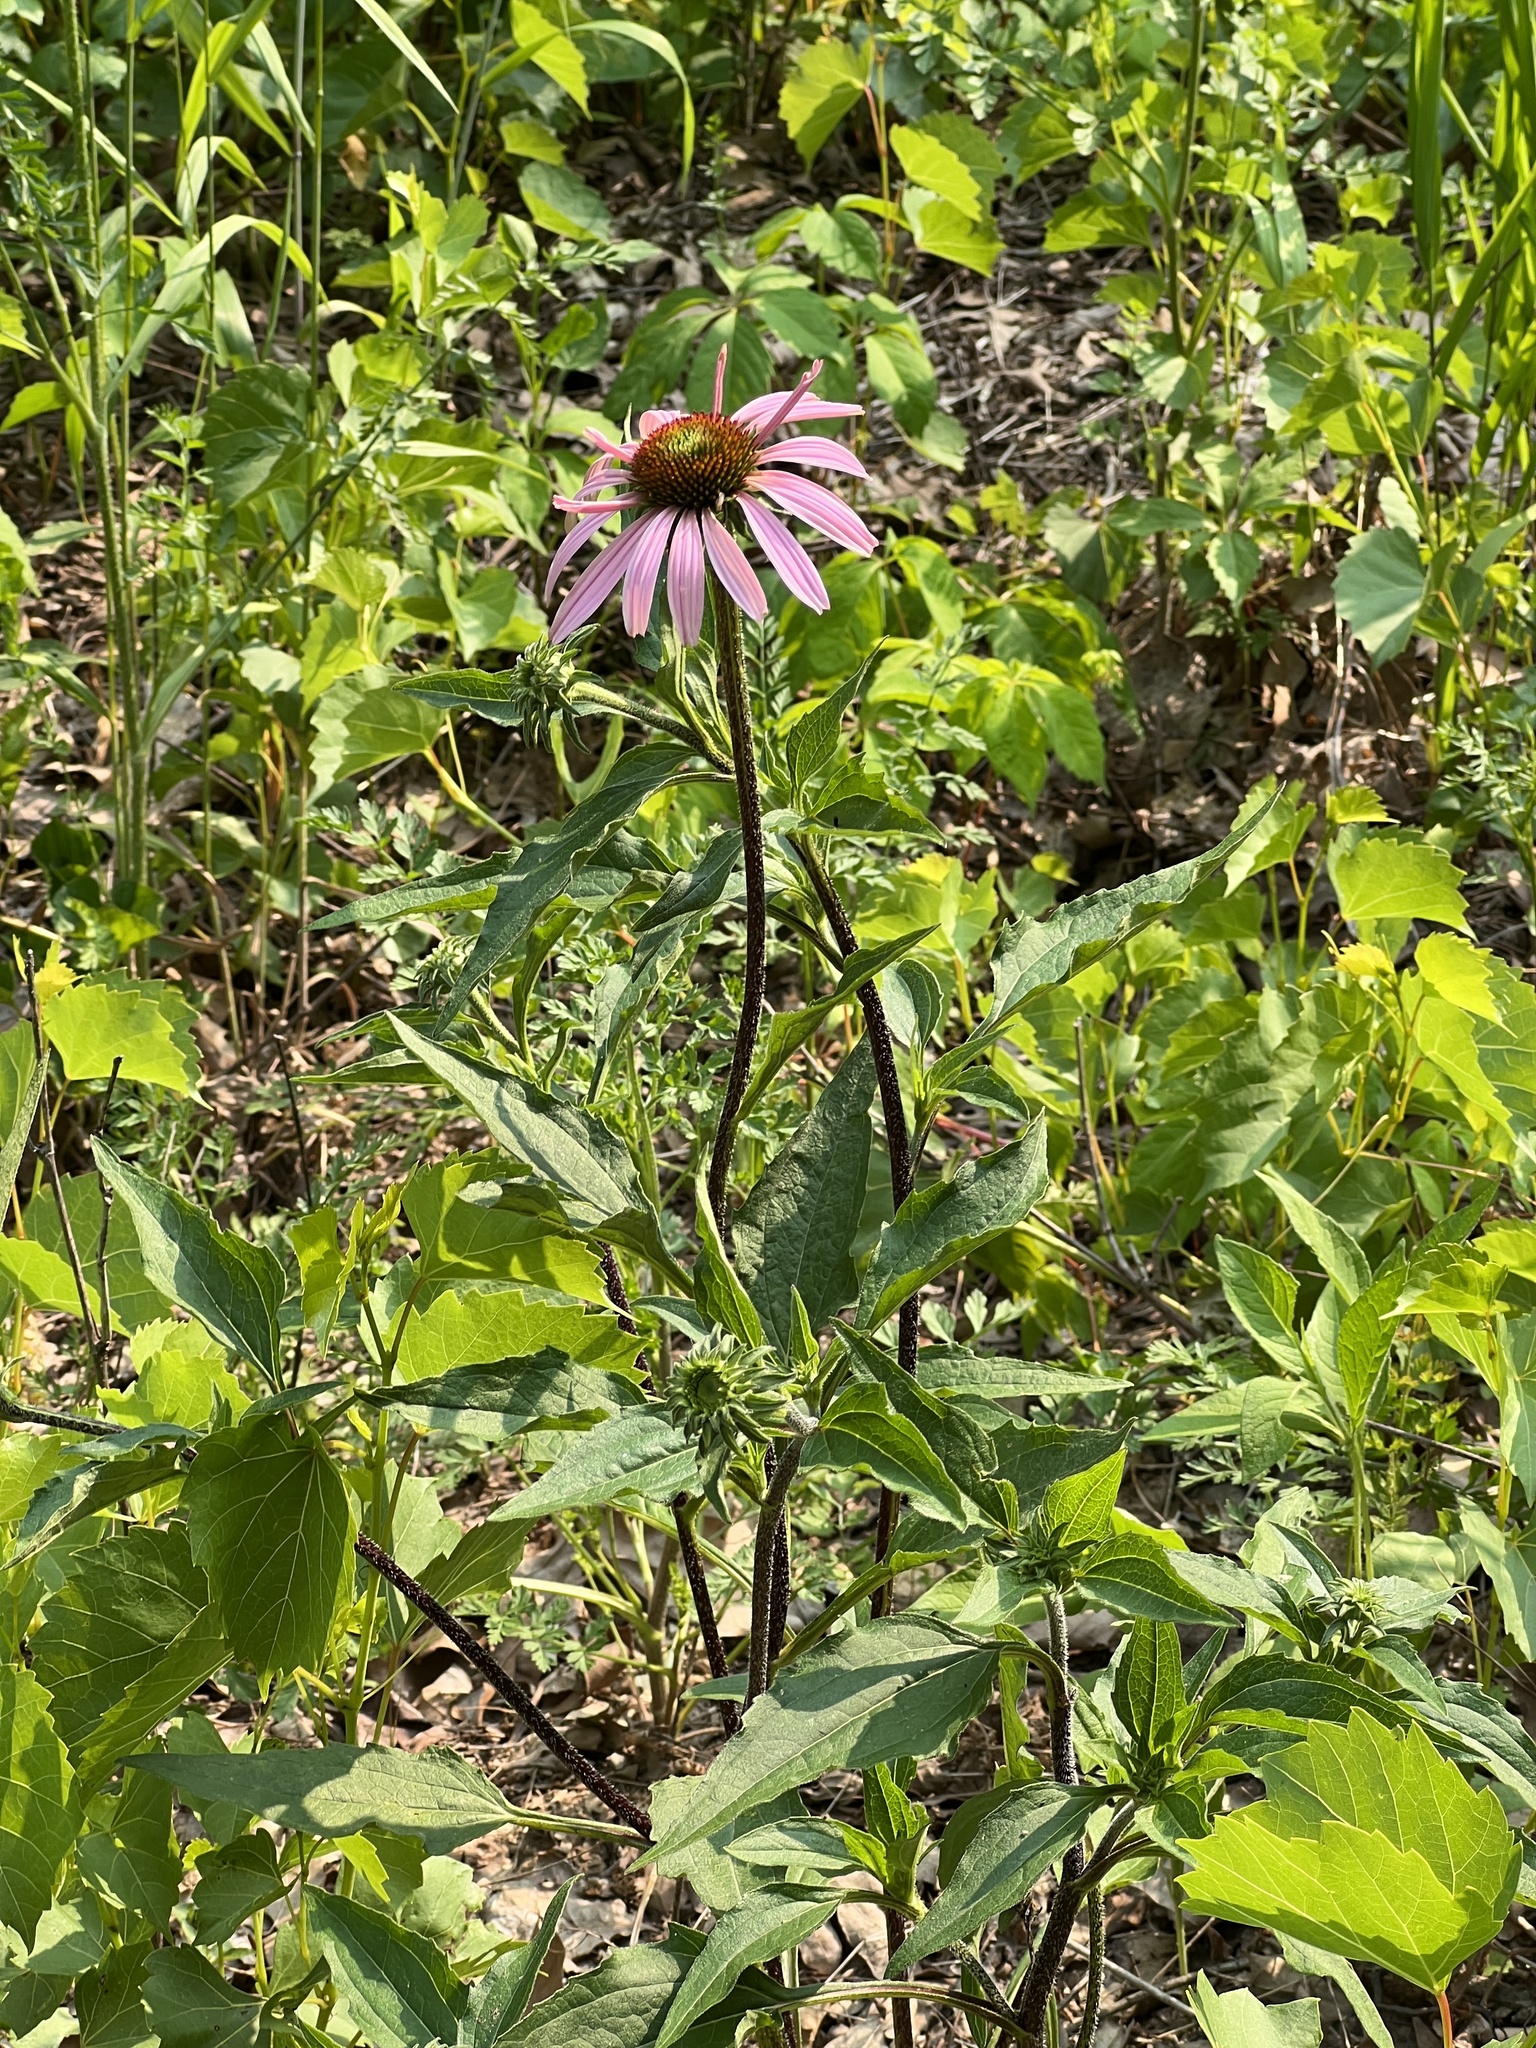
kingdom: Plantae
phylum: Tracheophyta
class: Magnoliopsida
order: Asterales
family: Asteraceae
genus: Echinacea
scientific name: Echinacea purpurea
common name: Broad-leaved purple coneflower
